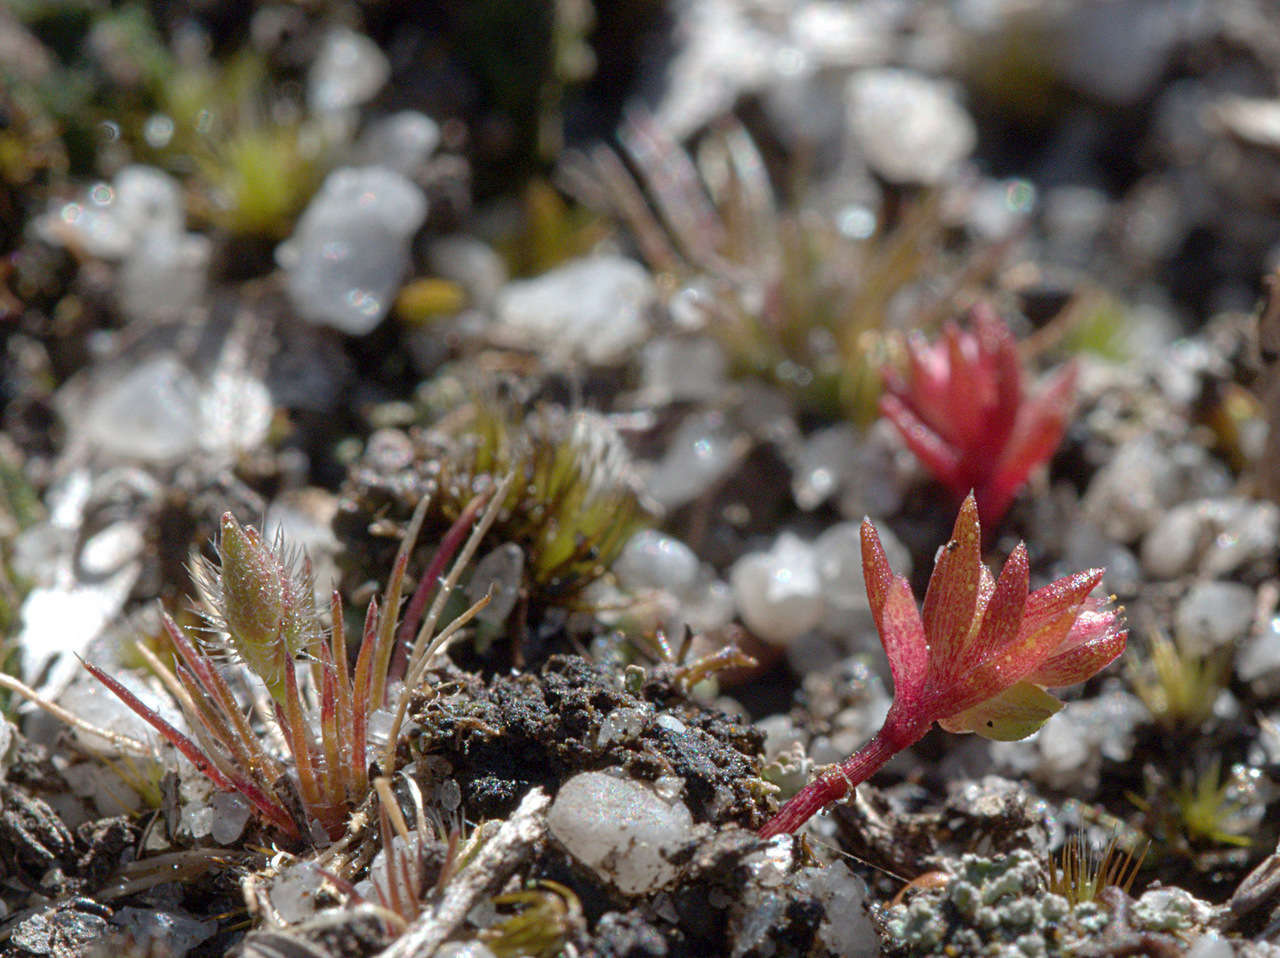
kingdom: Plantae
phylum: Tracheophyta
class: Liliopsida
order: Poales
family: Restionaceae
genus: Centrolepis
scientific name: Centrolepis strigosa
